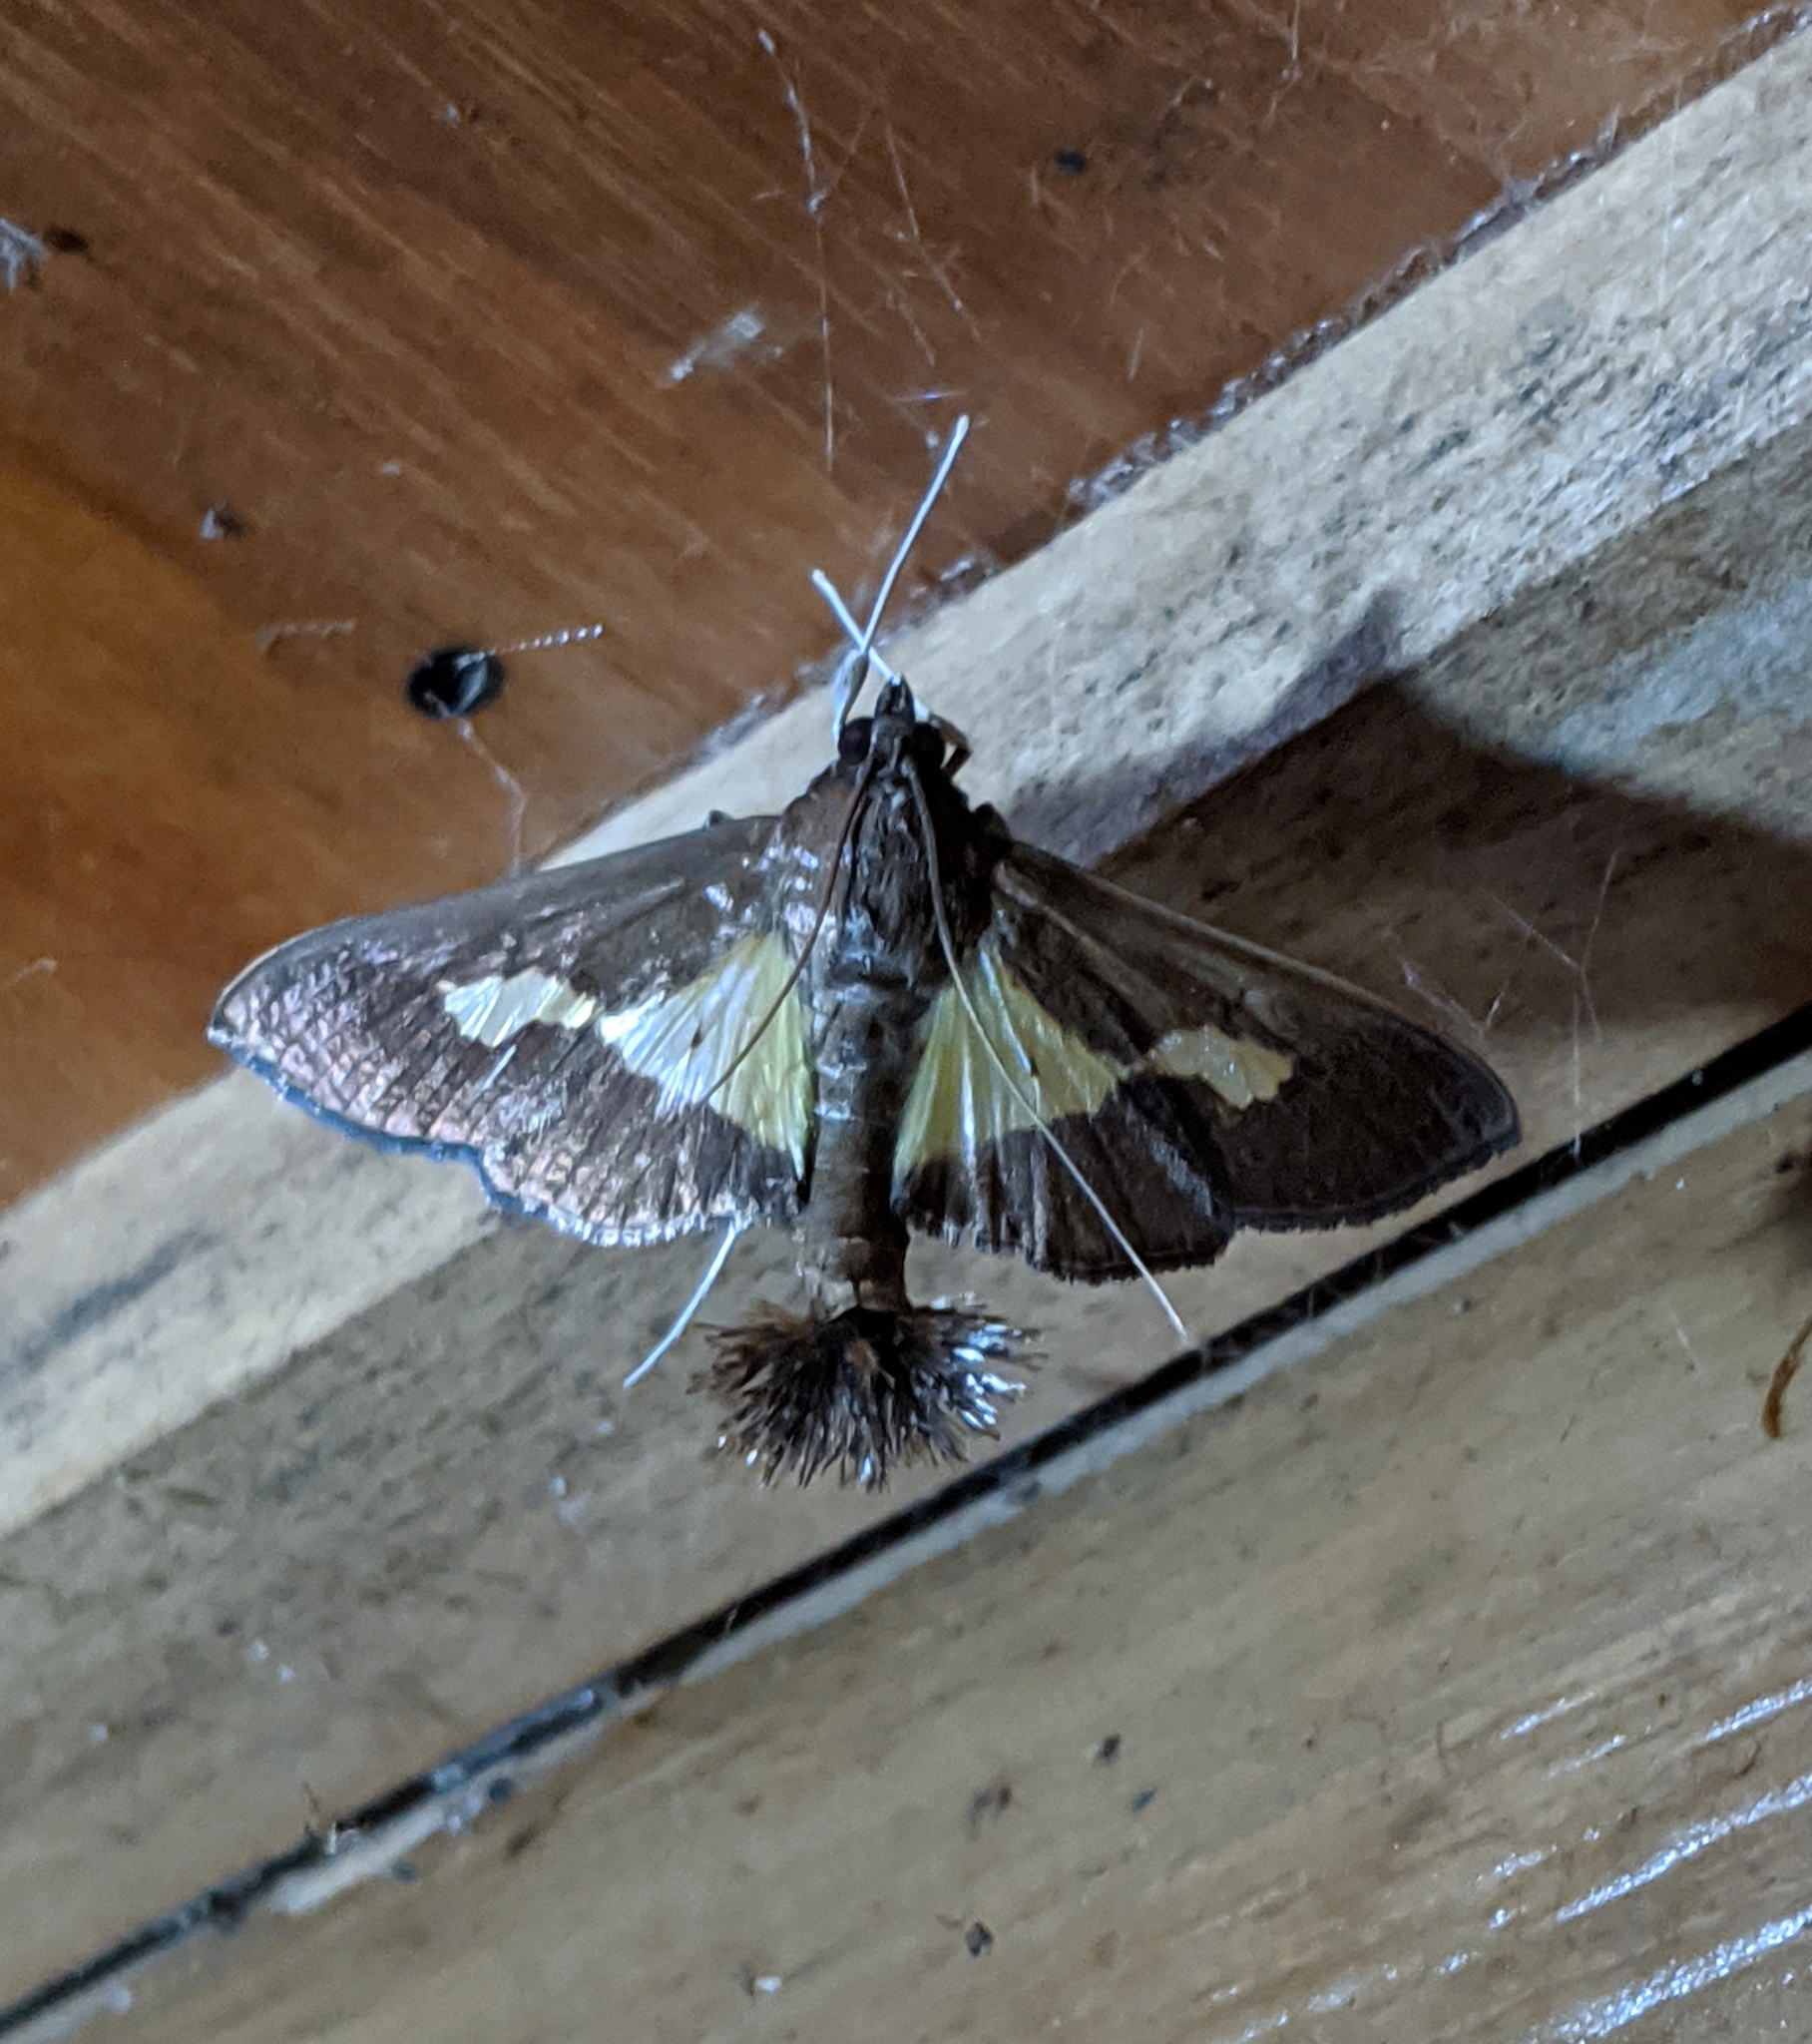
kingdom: Animalia
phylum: Arthropoda
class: Insecta
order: Lepidoptera
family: Crambidae
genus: Cryptographis
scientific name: Cryptographis nitidalis
